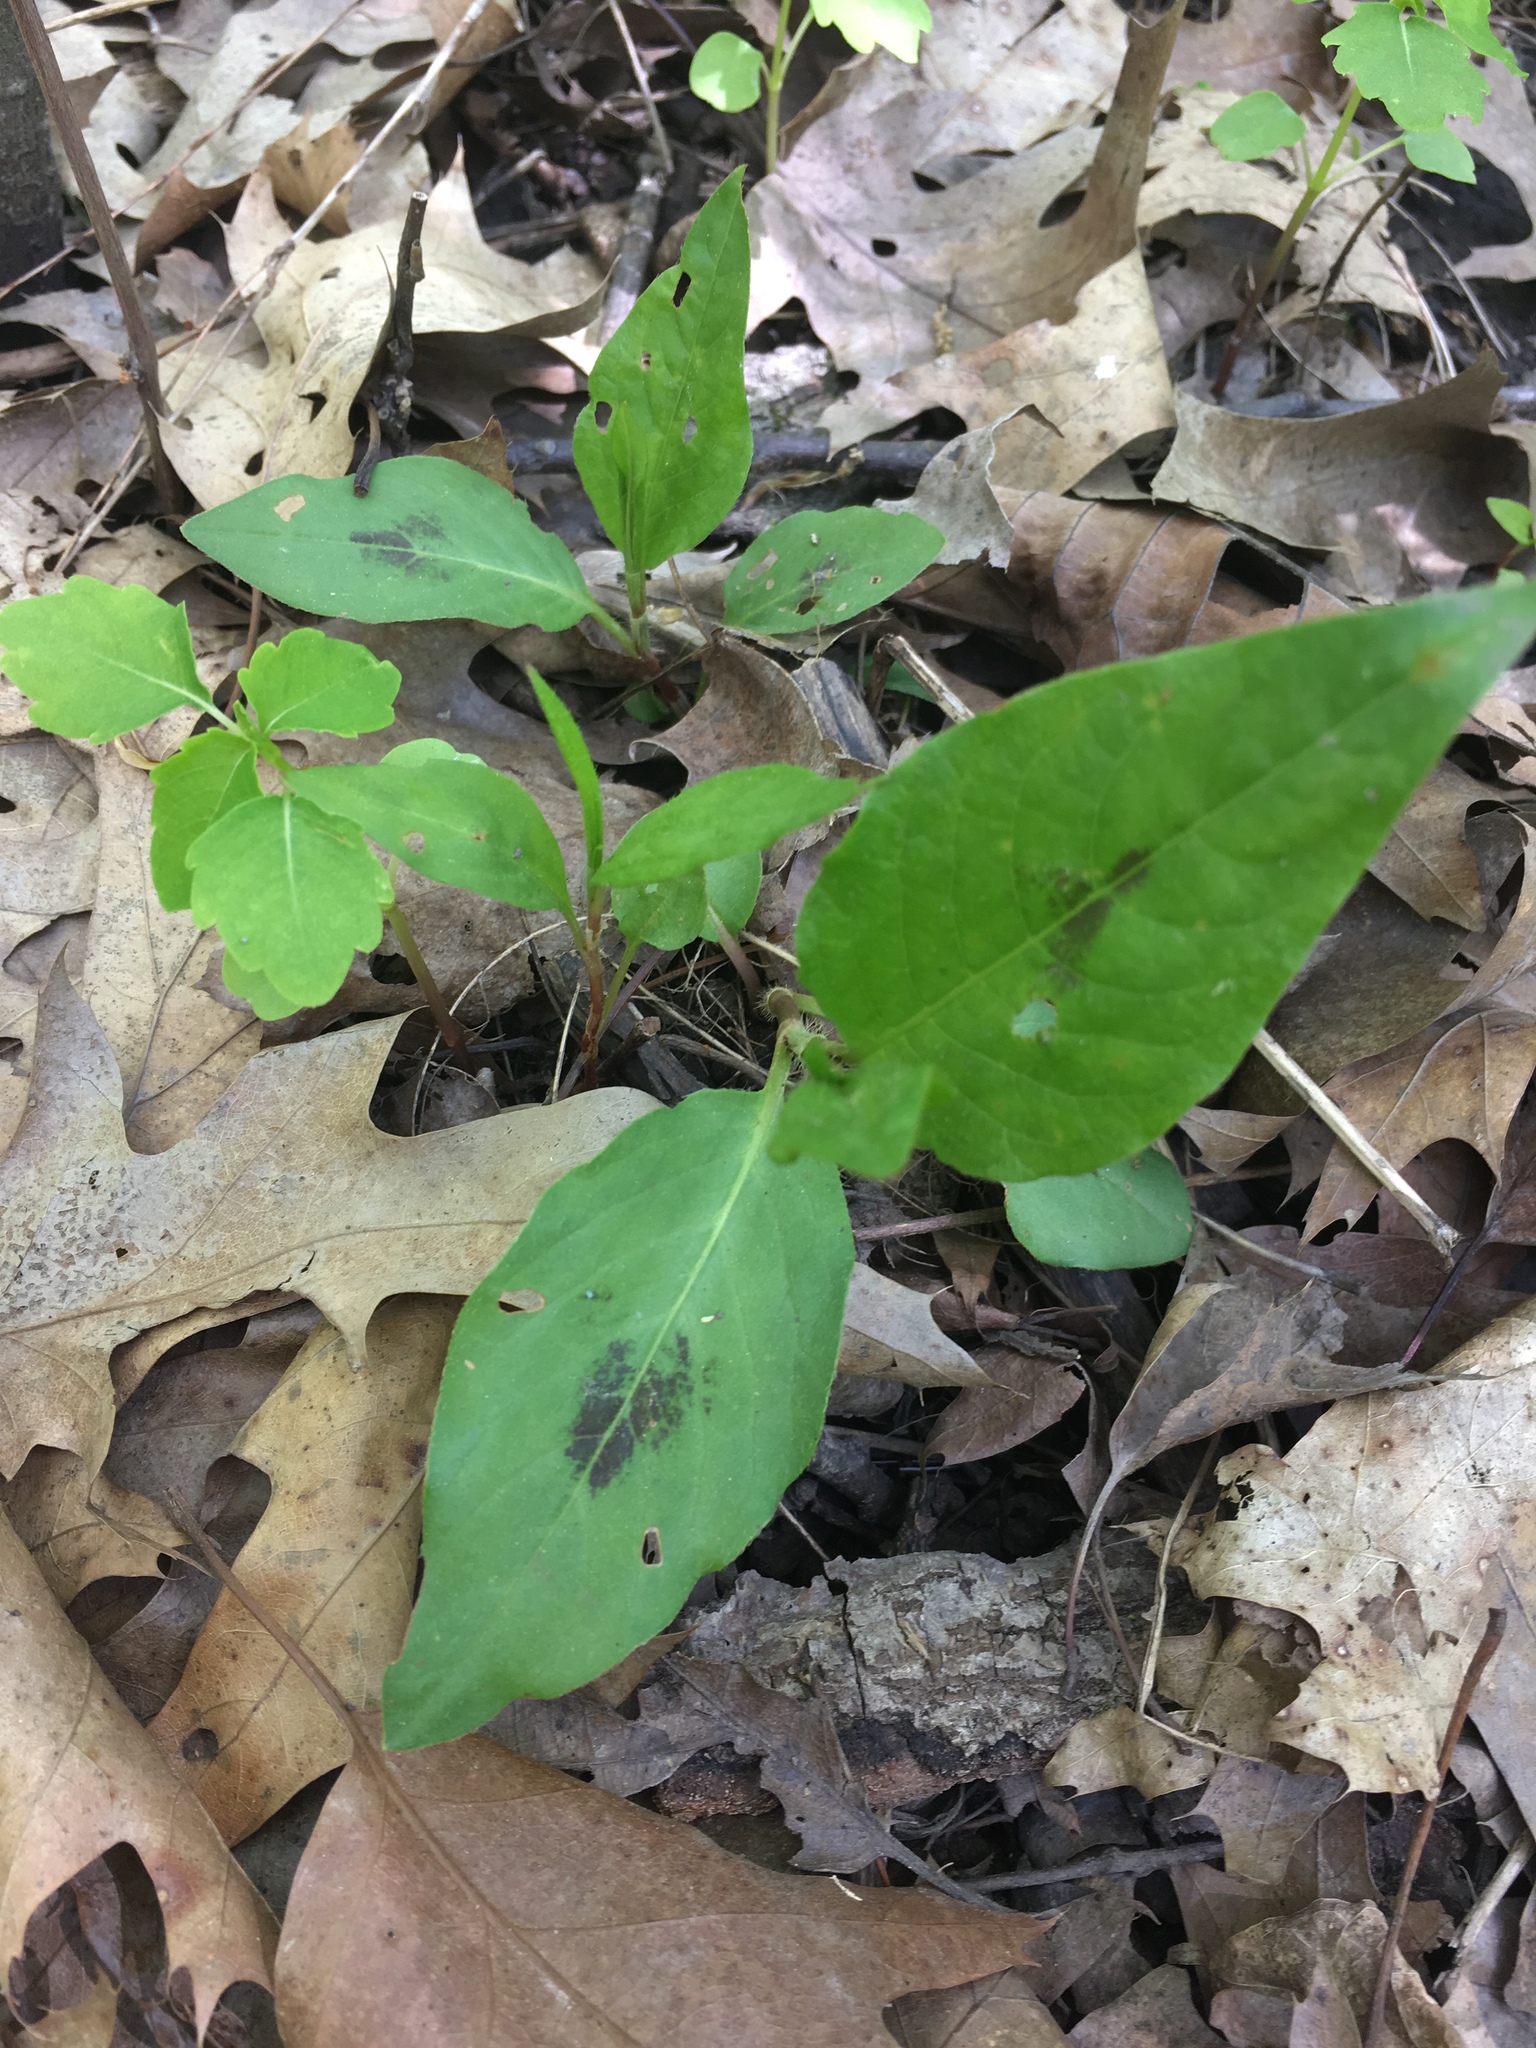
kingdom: Plantae
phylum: Tracheophyta
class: Magnoliopsida
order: Caryophyllales
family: Polygonaceae
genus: Persicaria
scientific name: Persicaria virginiana
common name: Jumpseed
